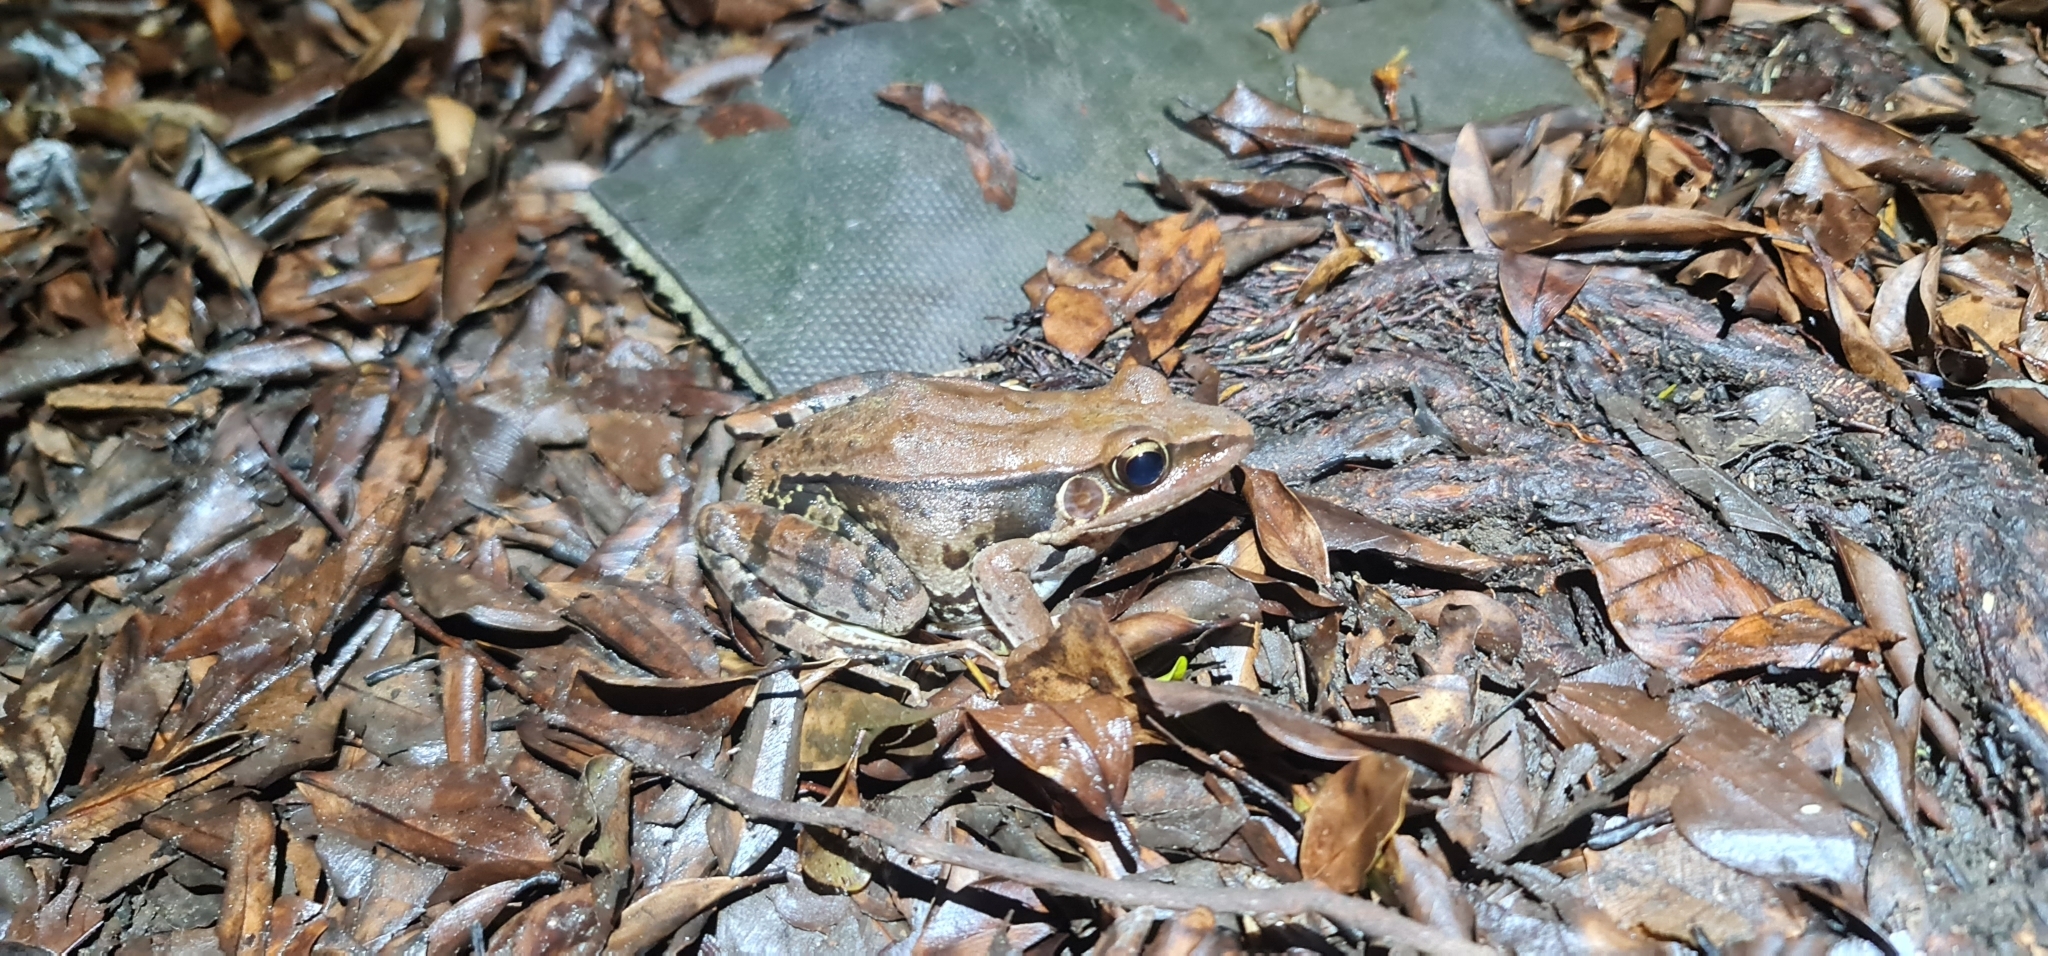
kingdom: Animalia
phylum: Chordata
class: Amphibia
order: Anura
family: Ranidae
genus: Sylvirana
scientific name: Sylvirana guentheri
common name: Guenther's amoy frog
